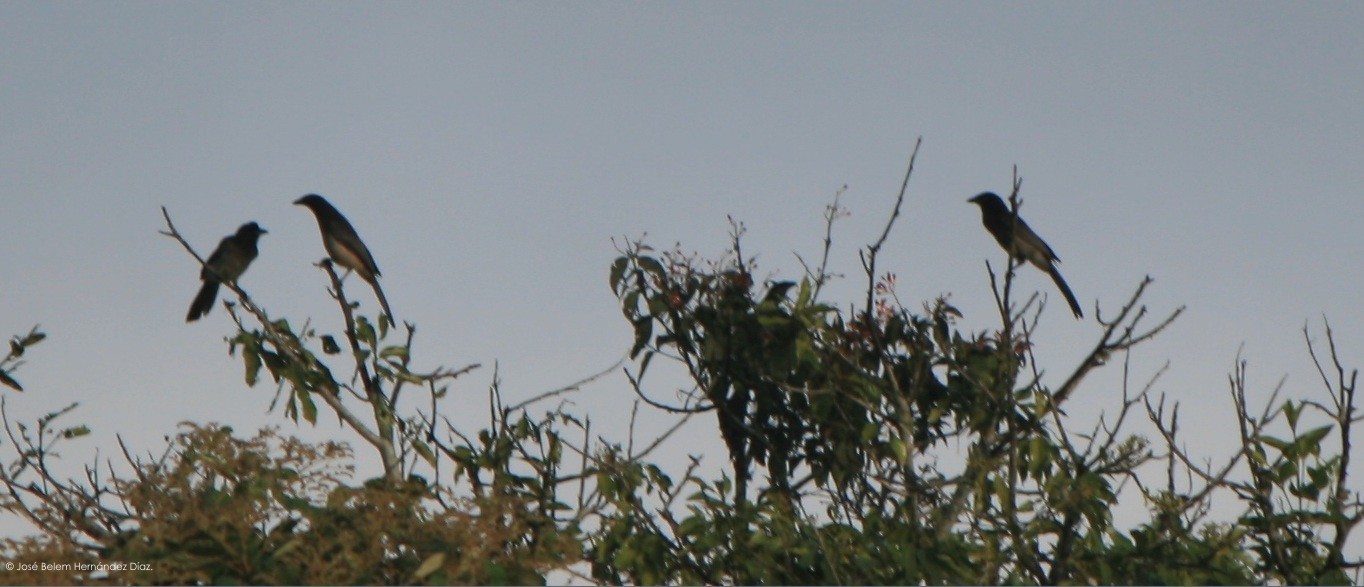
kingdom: Animalia
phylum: Chordata
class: Aves
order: Passeriformes
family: Corvidae
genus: Psilorhinus
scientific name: Psilorhinus morio
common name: Brown jay
